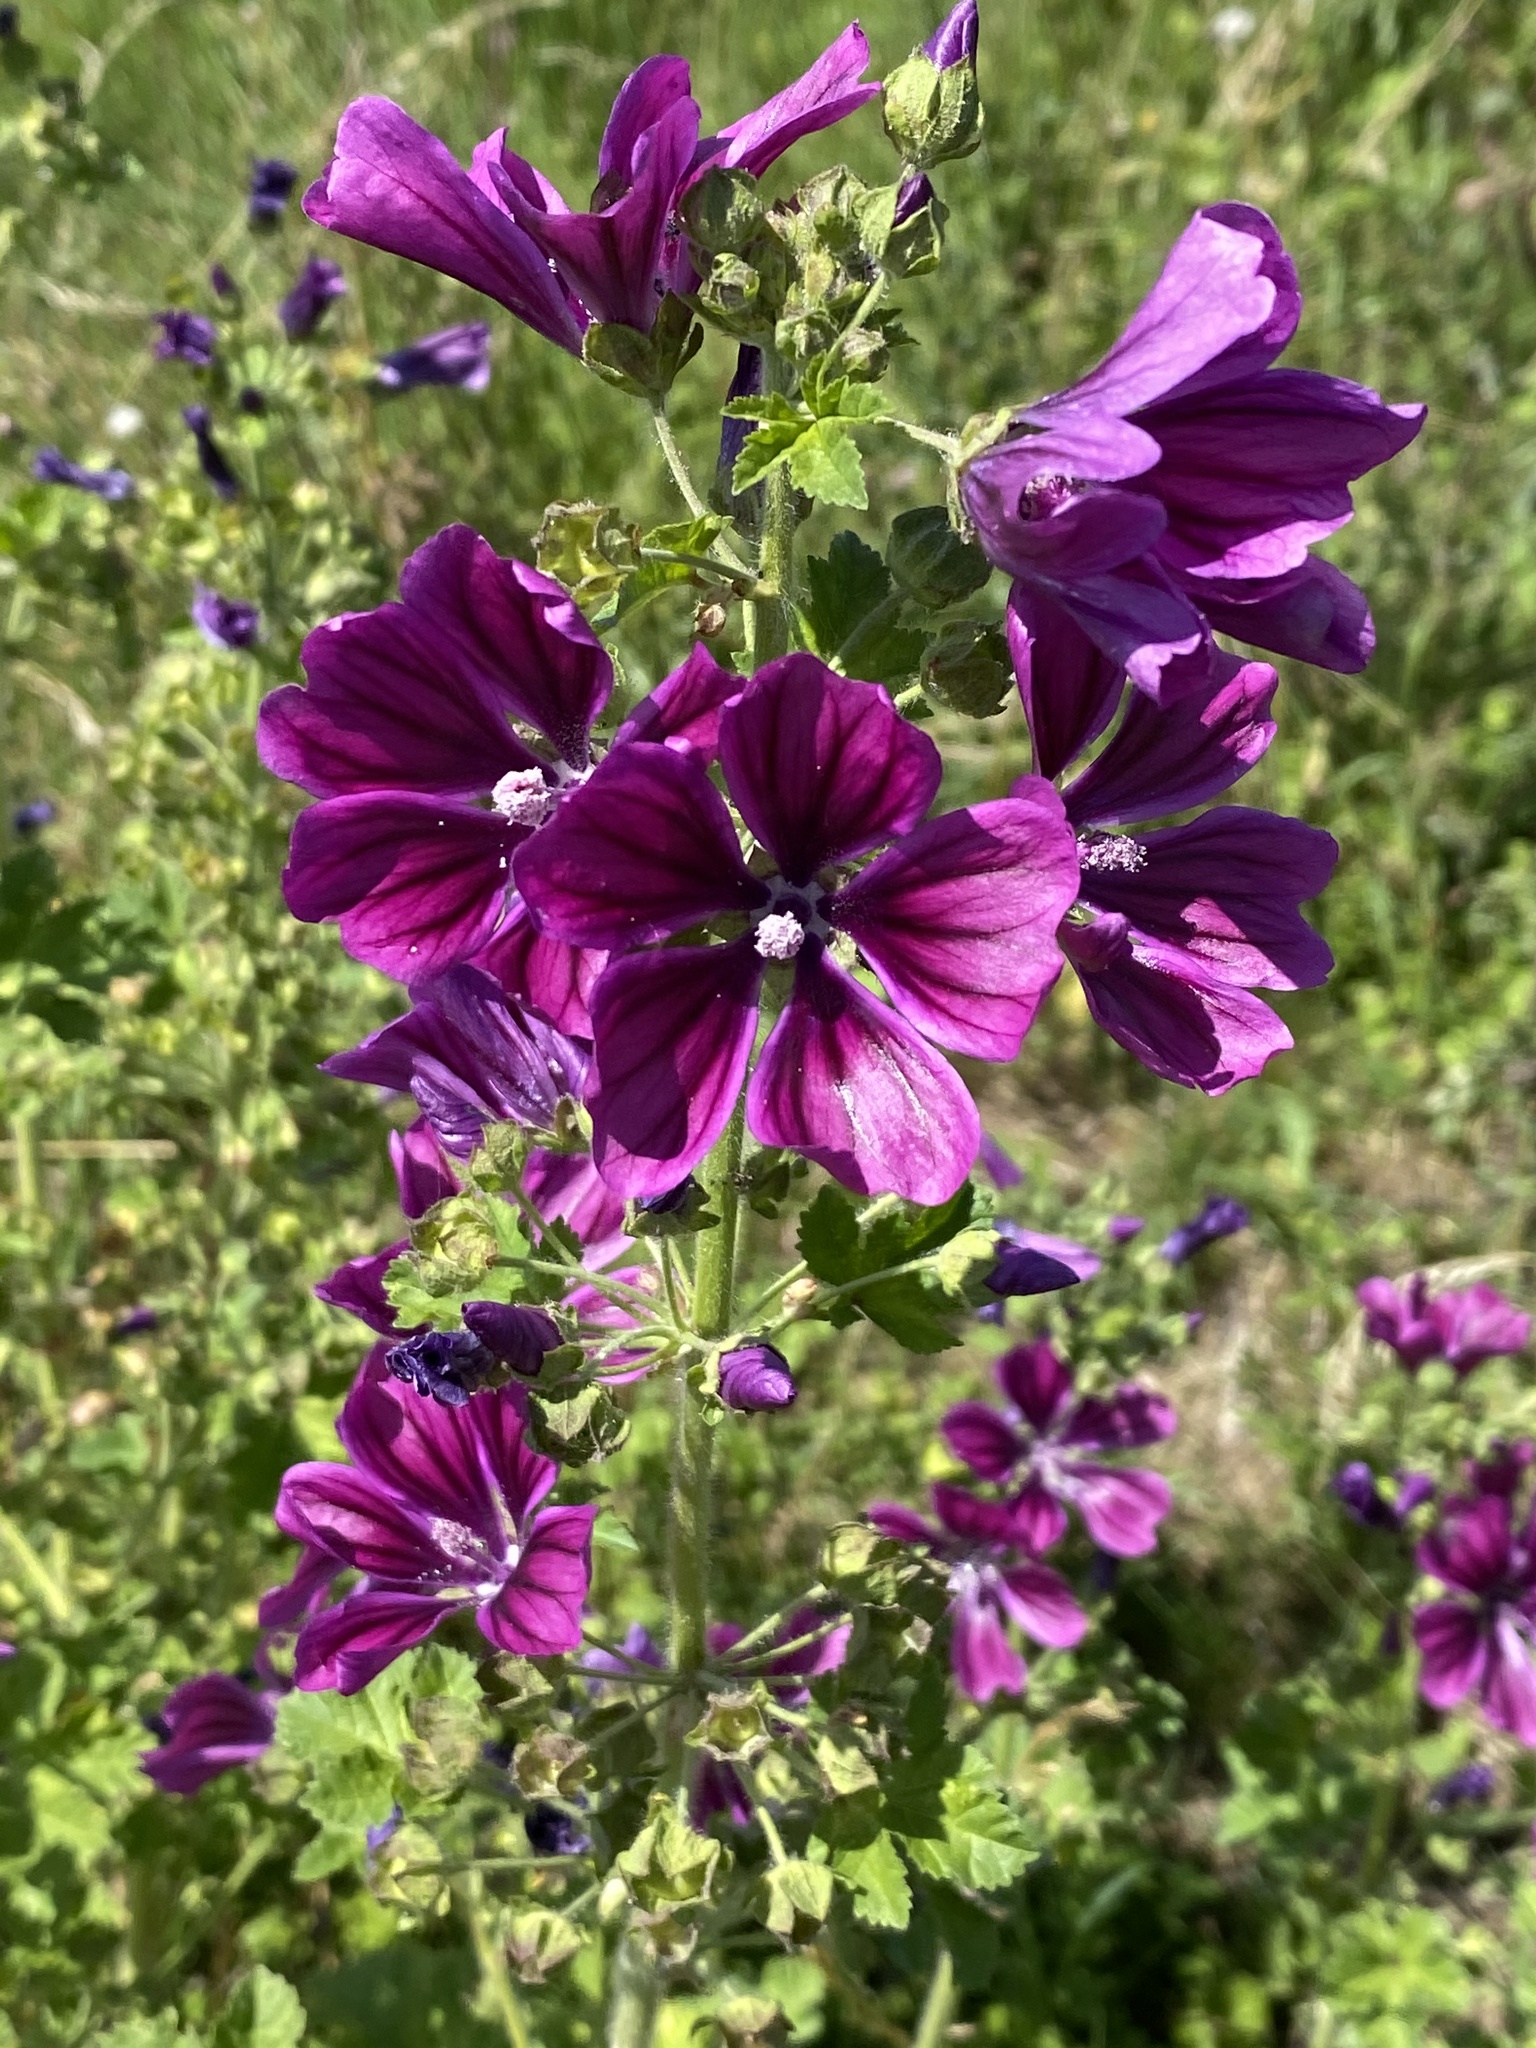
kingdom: Plantae
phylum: Tracheophyta
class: Magnoliopsida
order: Malvales
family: Malvaceae
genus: Malva
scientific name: Malva sylvestris
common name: Common mallow
